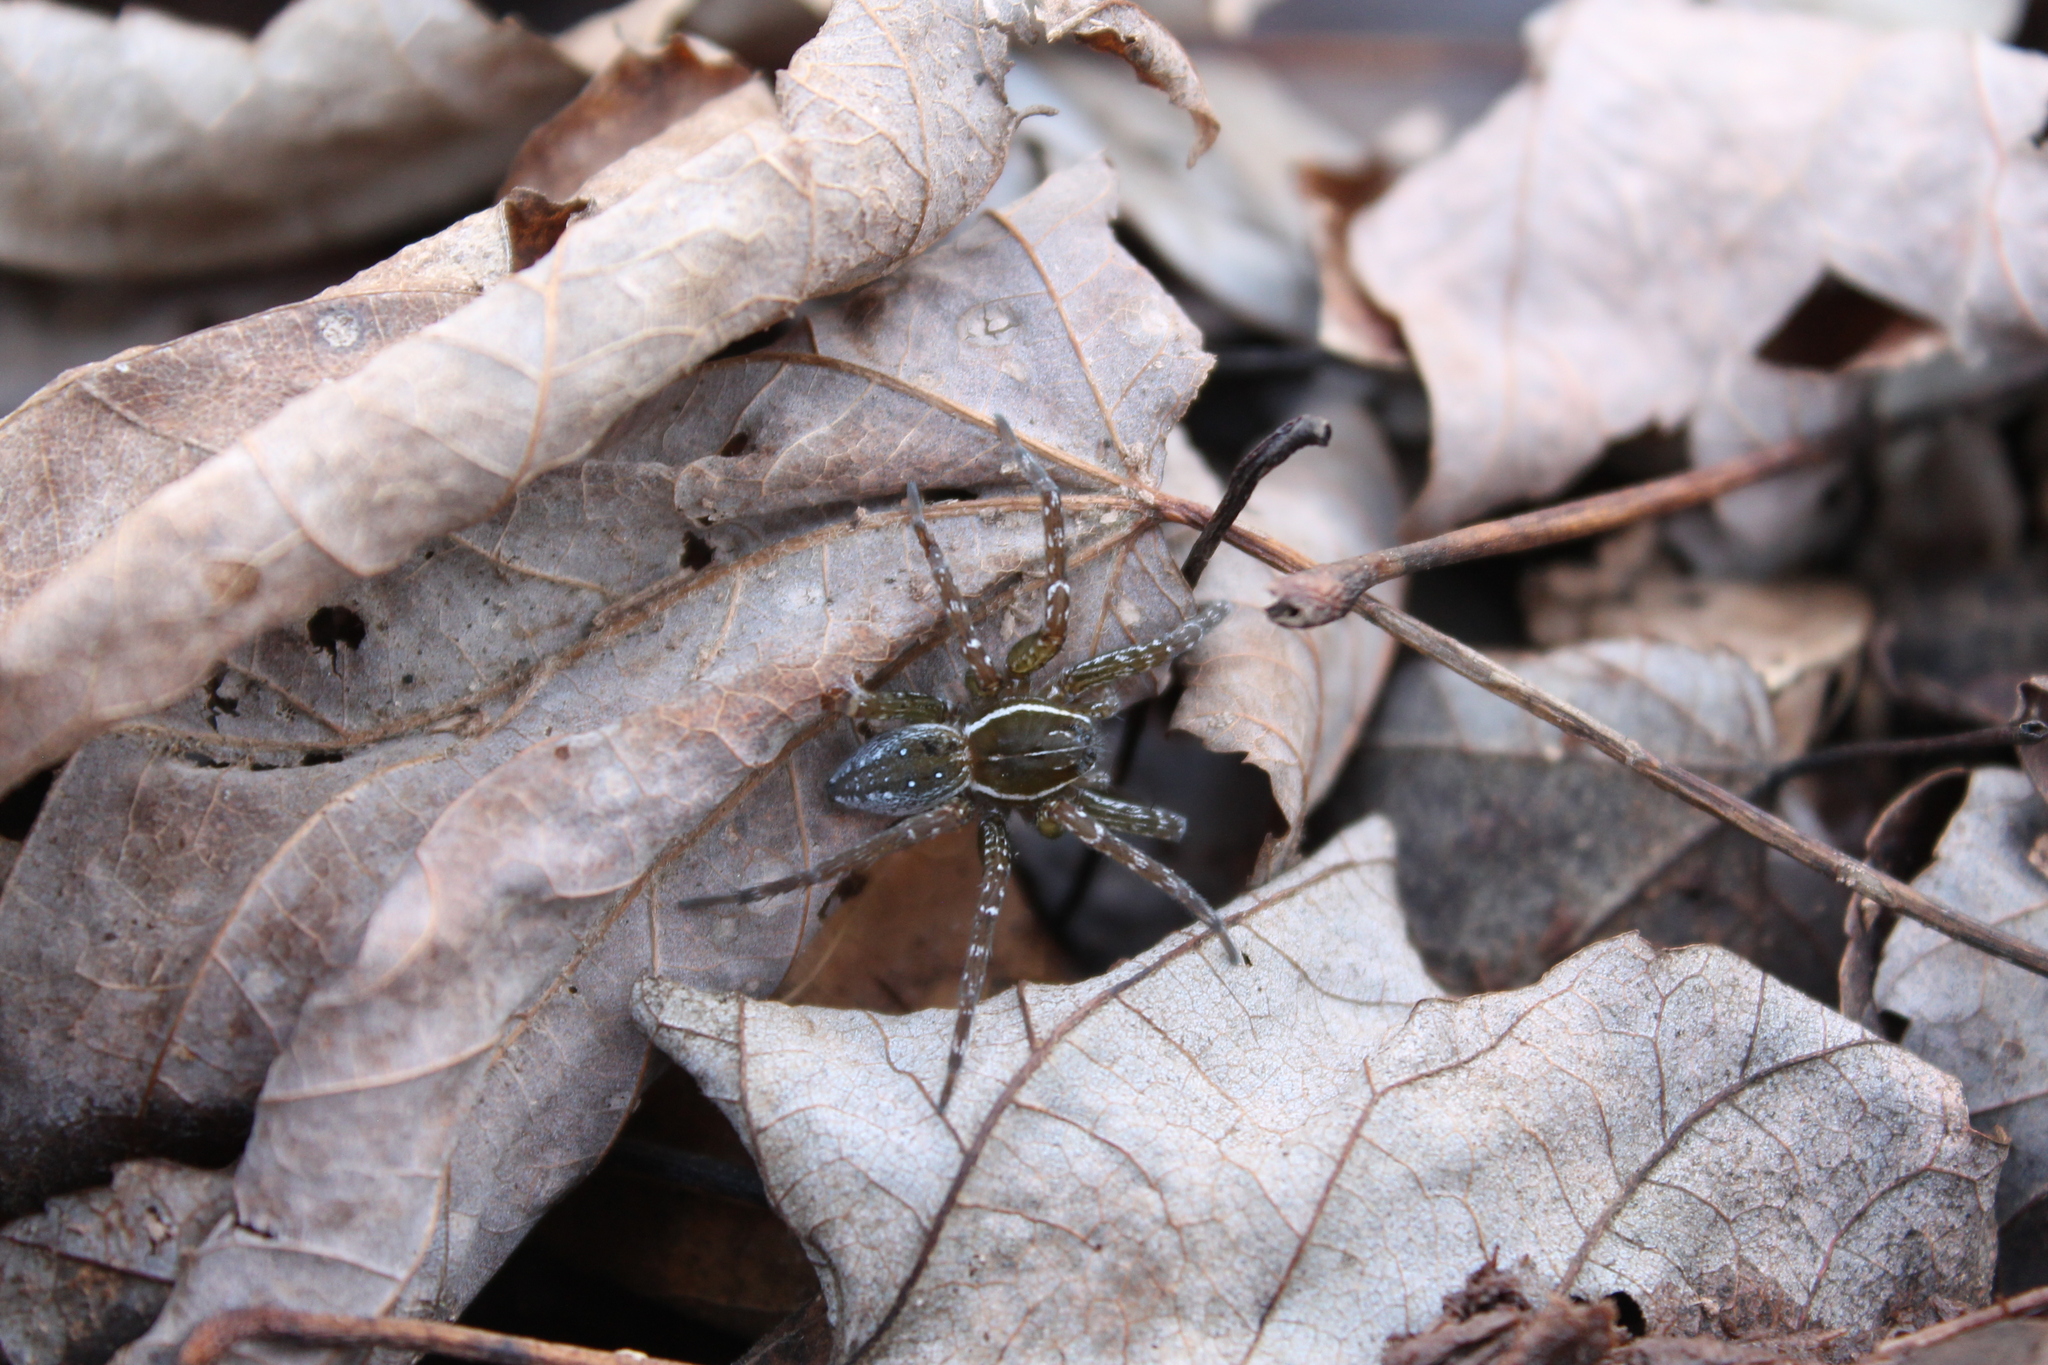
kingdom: Animalia
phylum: Arthropoda
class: Arachnida
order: Araneae
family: Pisauridae
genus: Dolomedes
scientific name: Dolomedes triton
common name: Six-spotted fishing spider
